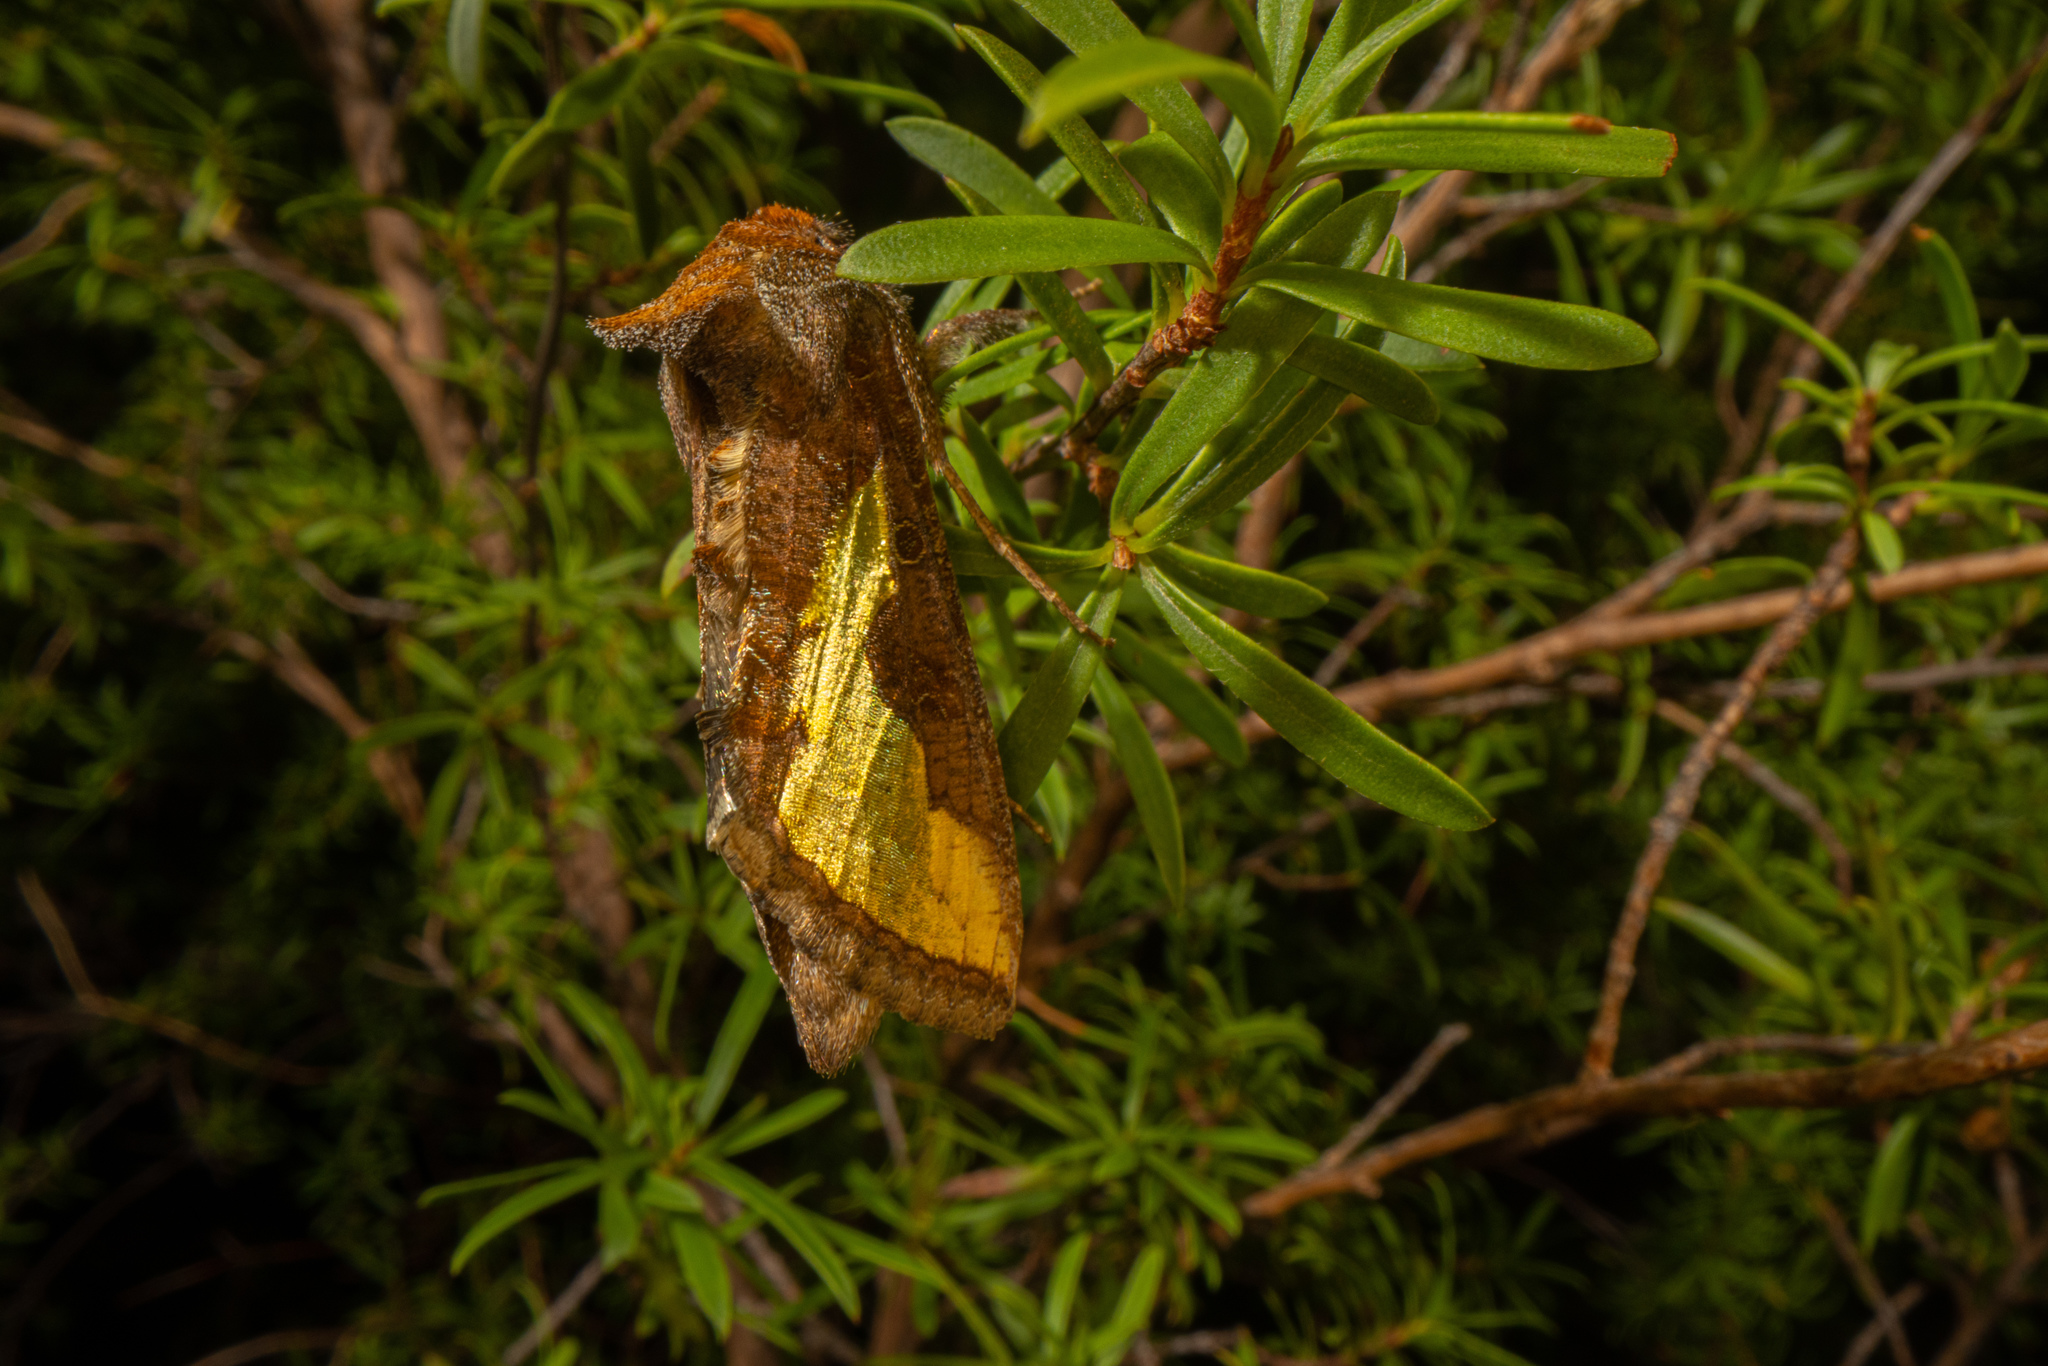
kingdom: Animalia
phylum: Arthropoda
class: Insecta
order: Lepidoptera
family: Noctuidae
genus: Thysanoplusia
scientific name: Thysanoplusia orichalcea
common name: Slender burnished brass, golden plusia
